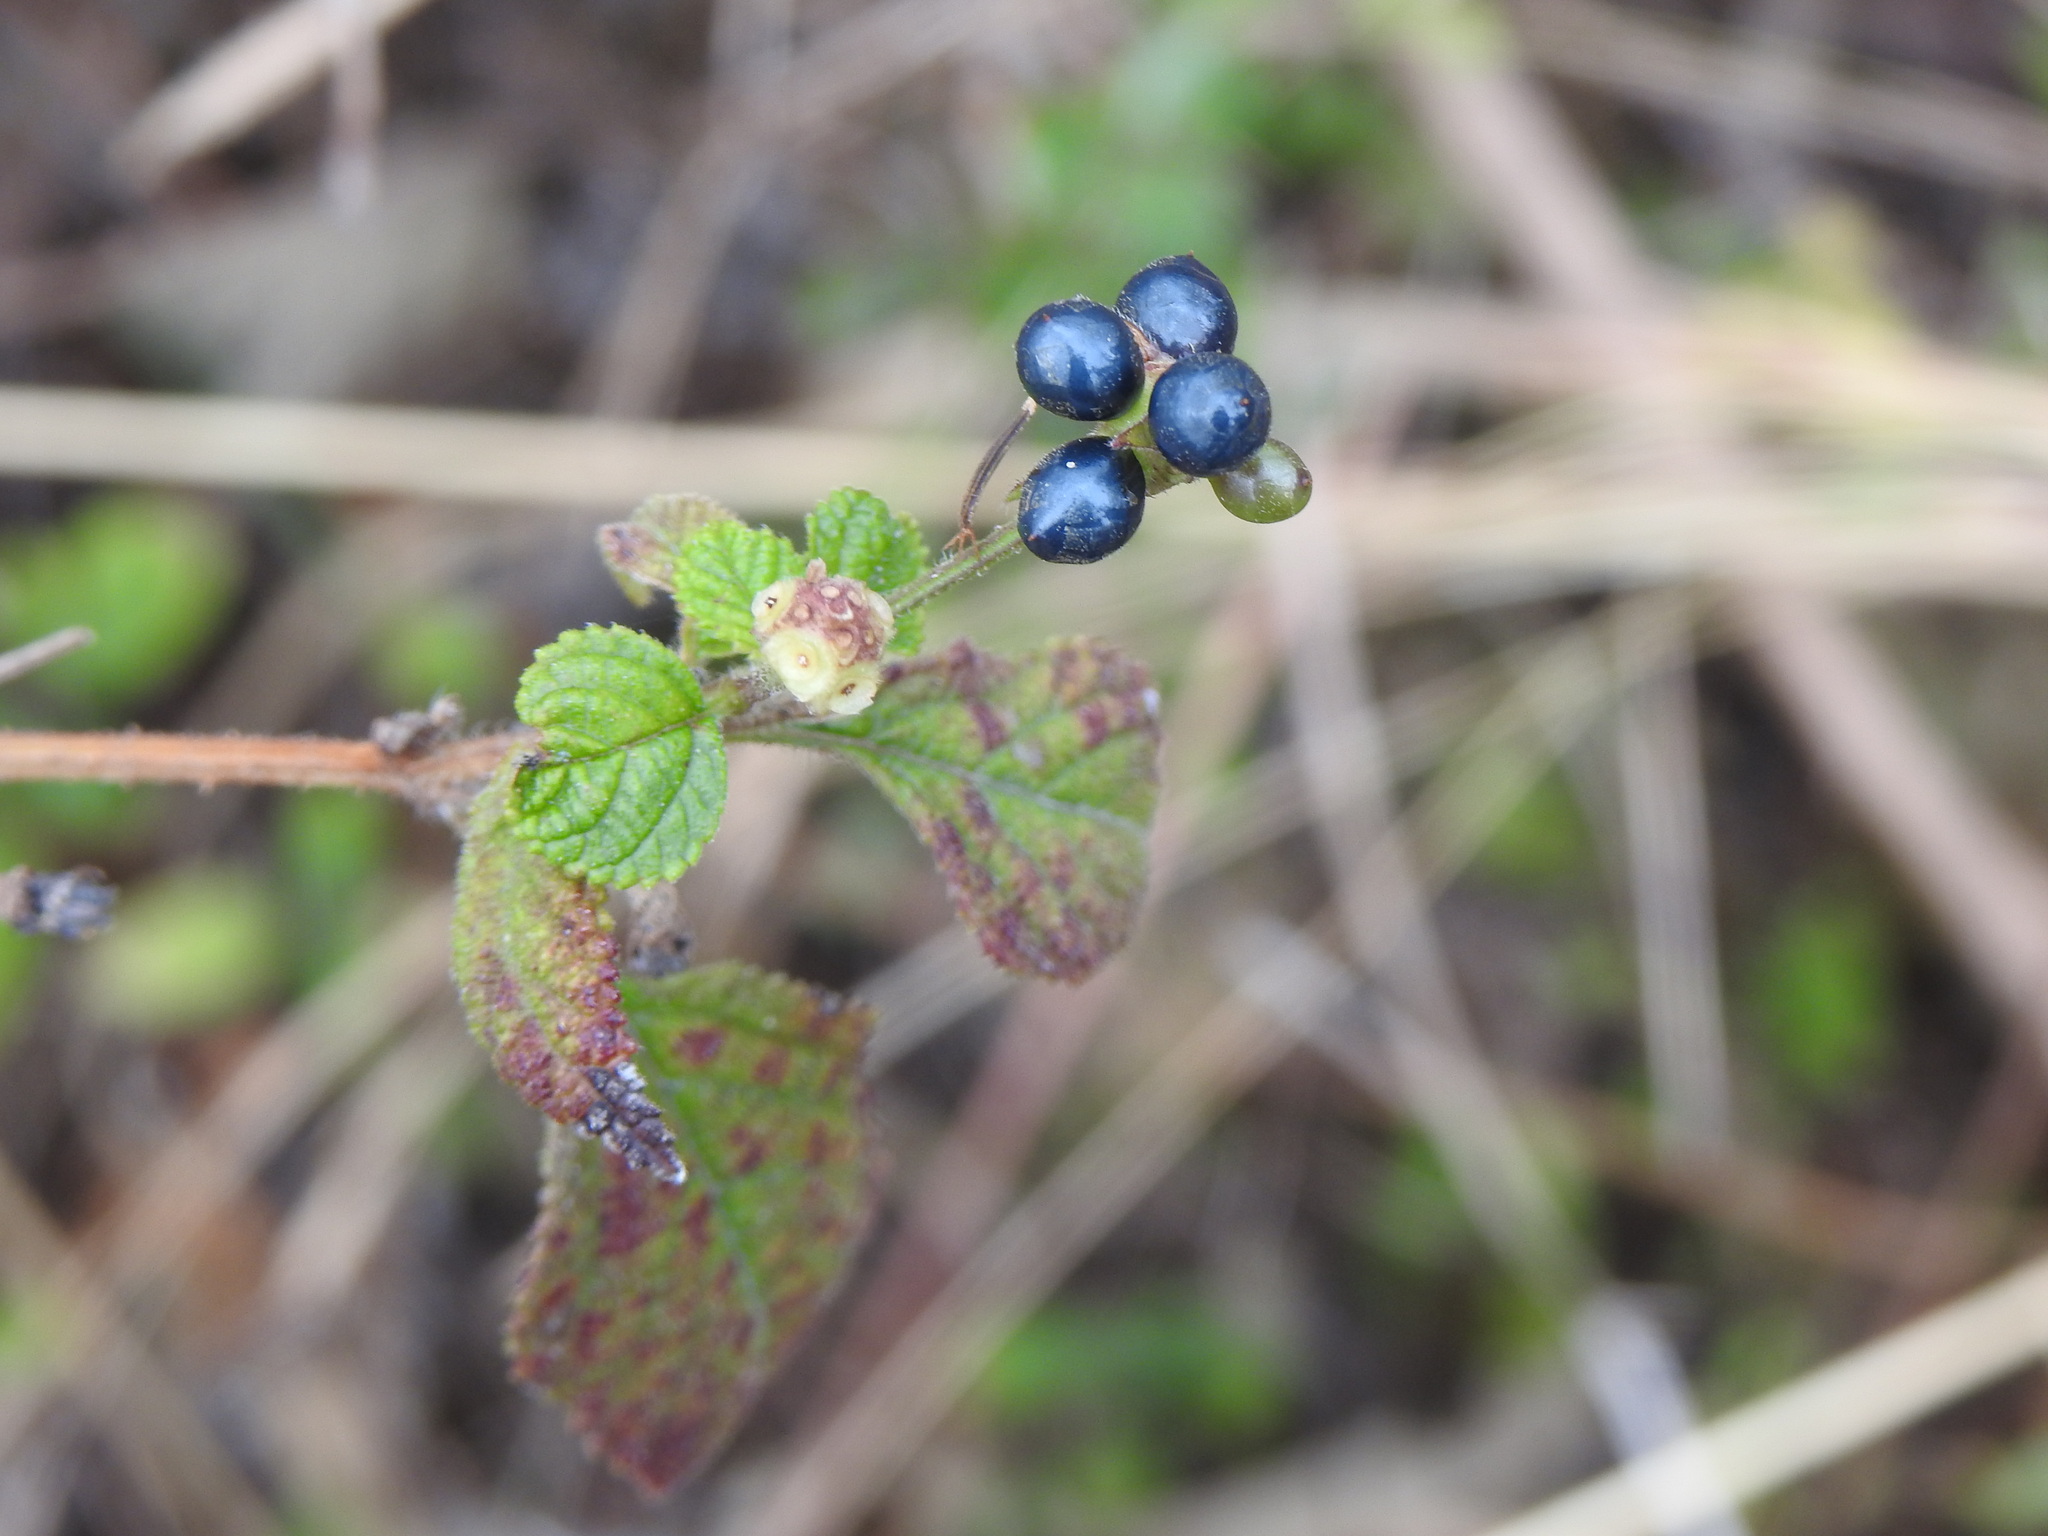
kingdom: Plantae
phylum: Tracheophyta
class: Magnoliopsida
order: Lamiales
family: Verbenaceae
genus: Lantana
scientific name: Lantana camara
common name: Lantana
